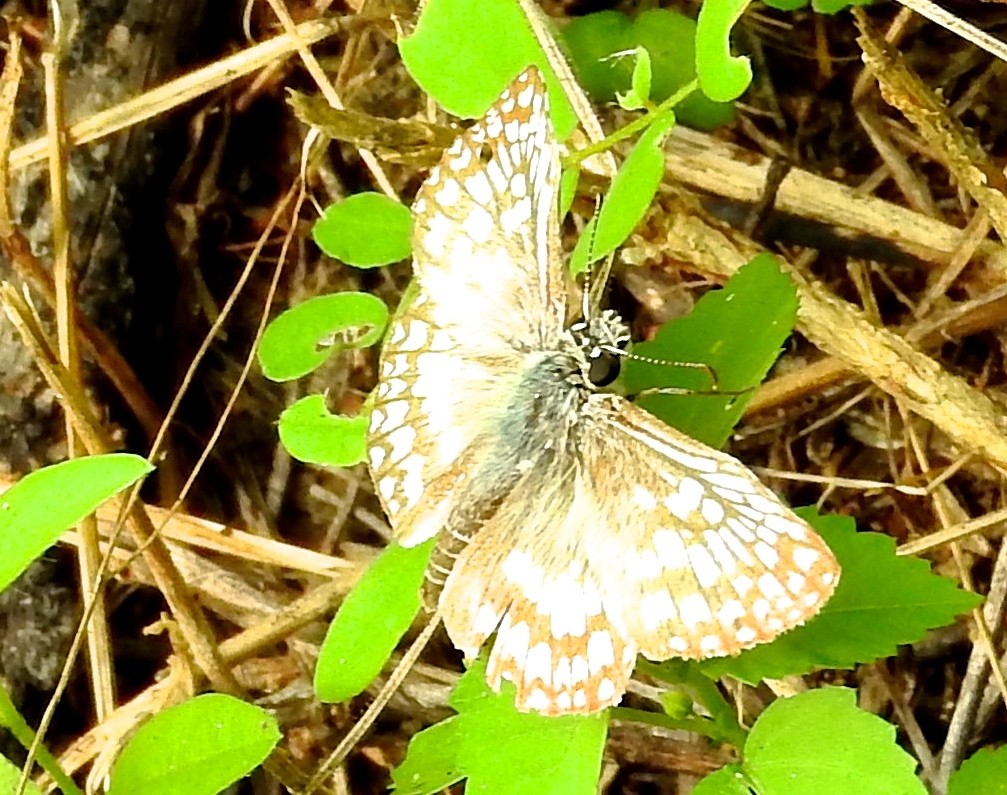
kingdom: Animalia
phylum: Arthropoda
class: Insecta
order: Lepidoptera
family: Hesperiidae
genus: Burnsius
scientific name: Burnsius
